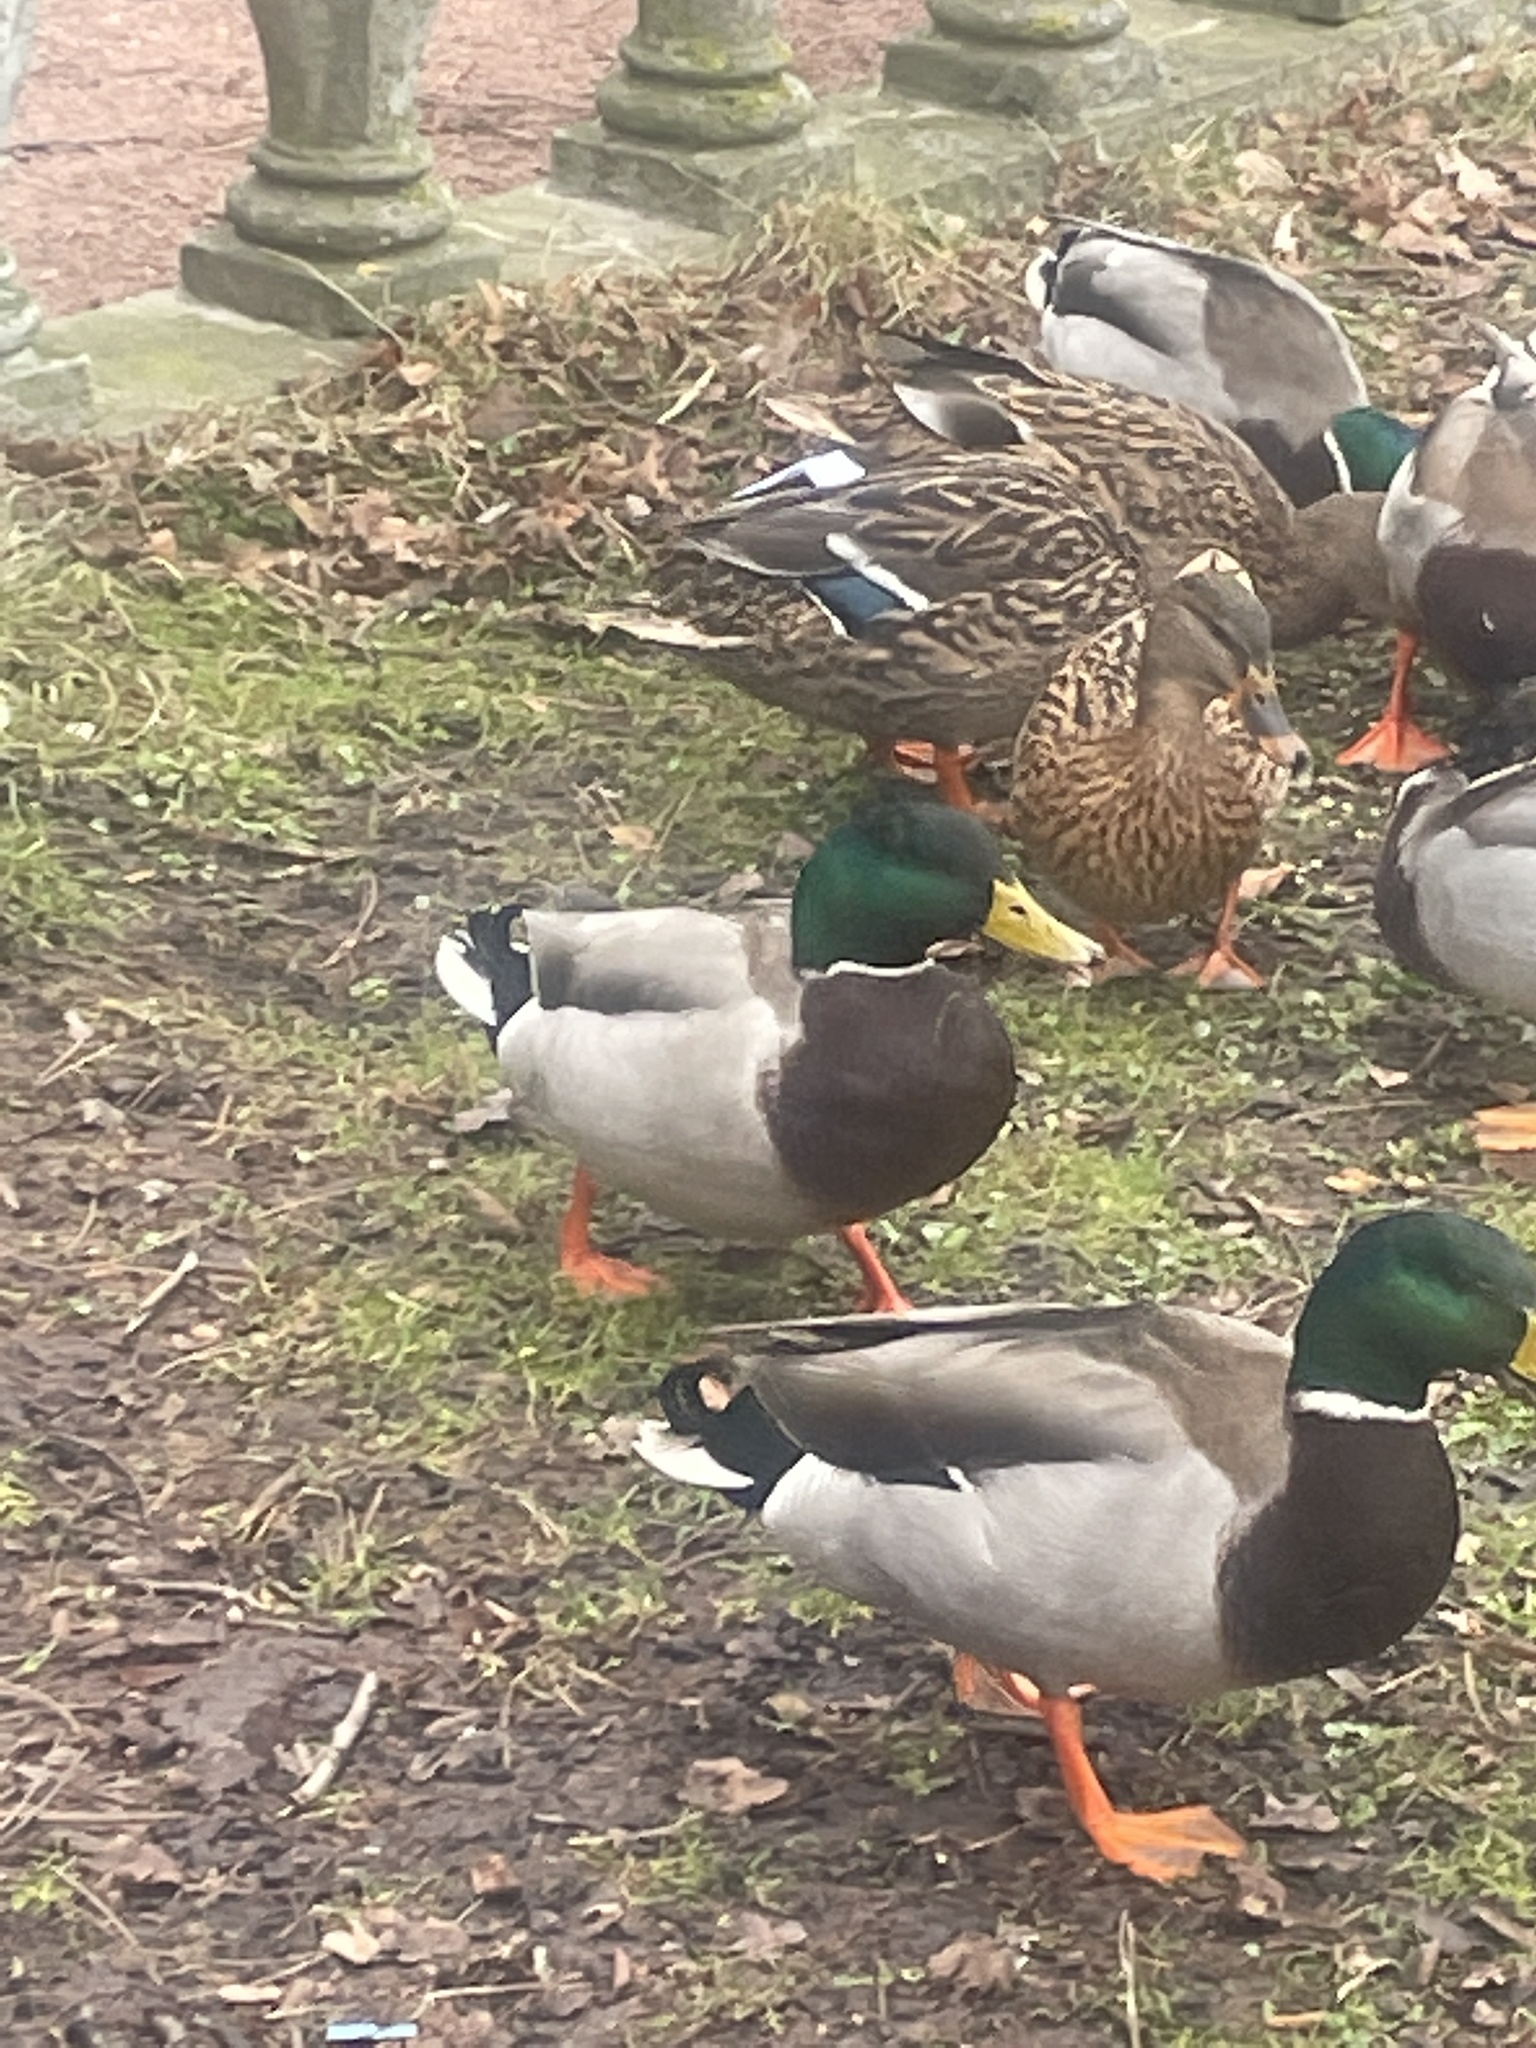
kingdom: Animalia
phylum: Chordata
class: Aves
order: Anseriformes
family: Anatidae
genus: Anas
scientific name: Anas platyrhynchos
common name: Mallard
